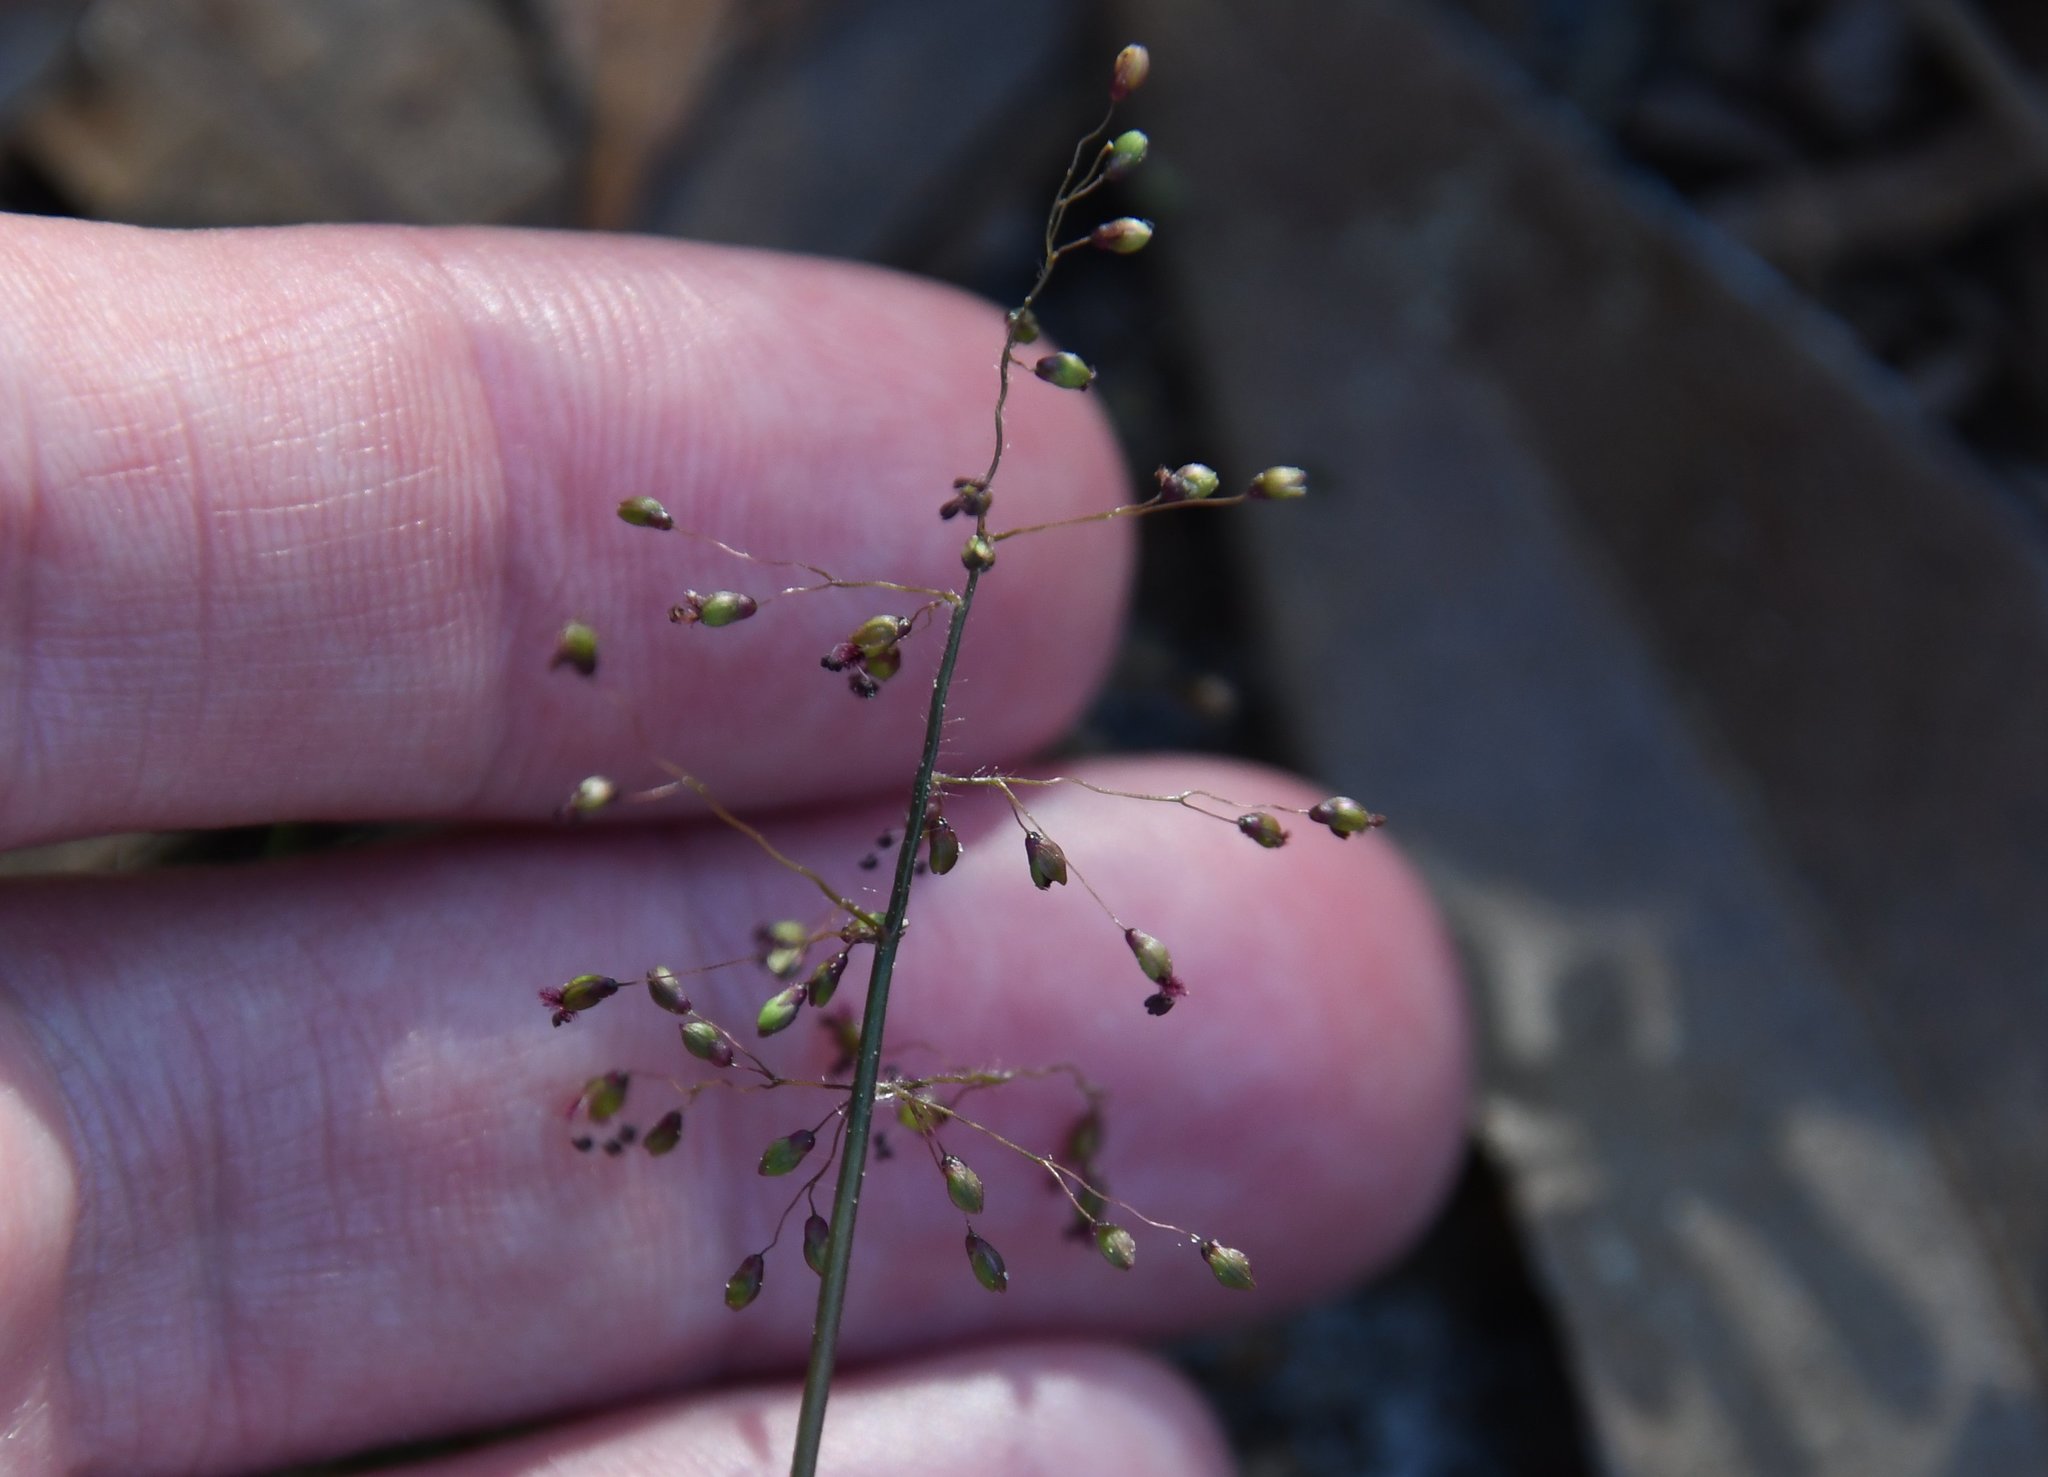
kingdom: Plantae
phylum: Tracheophyta
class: Liliopsida
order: Poales
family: Poaceae
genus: Dichanthelium
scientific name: Dichanthelium strigosum
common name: Cushion-tuft panic grass
